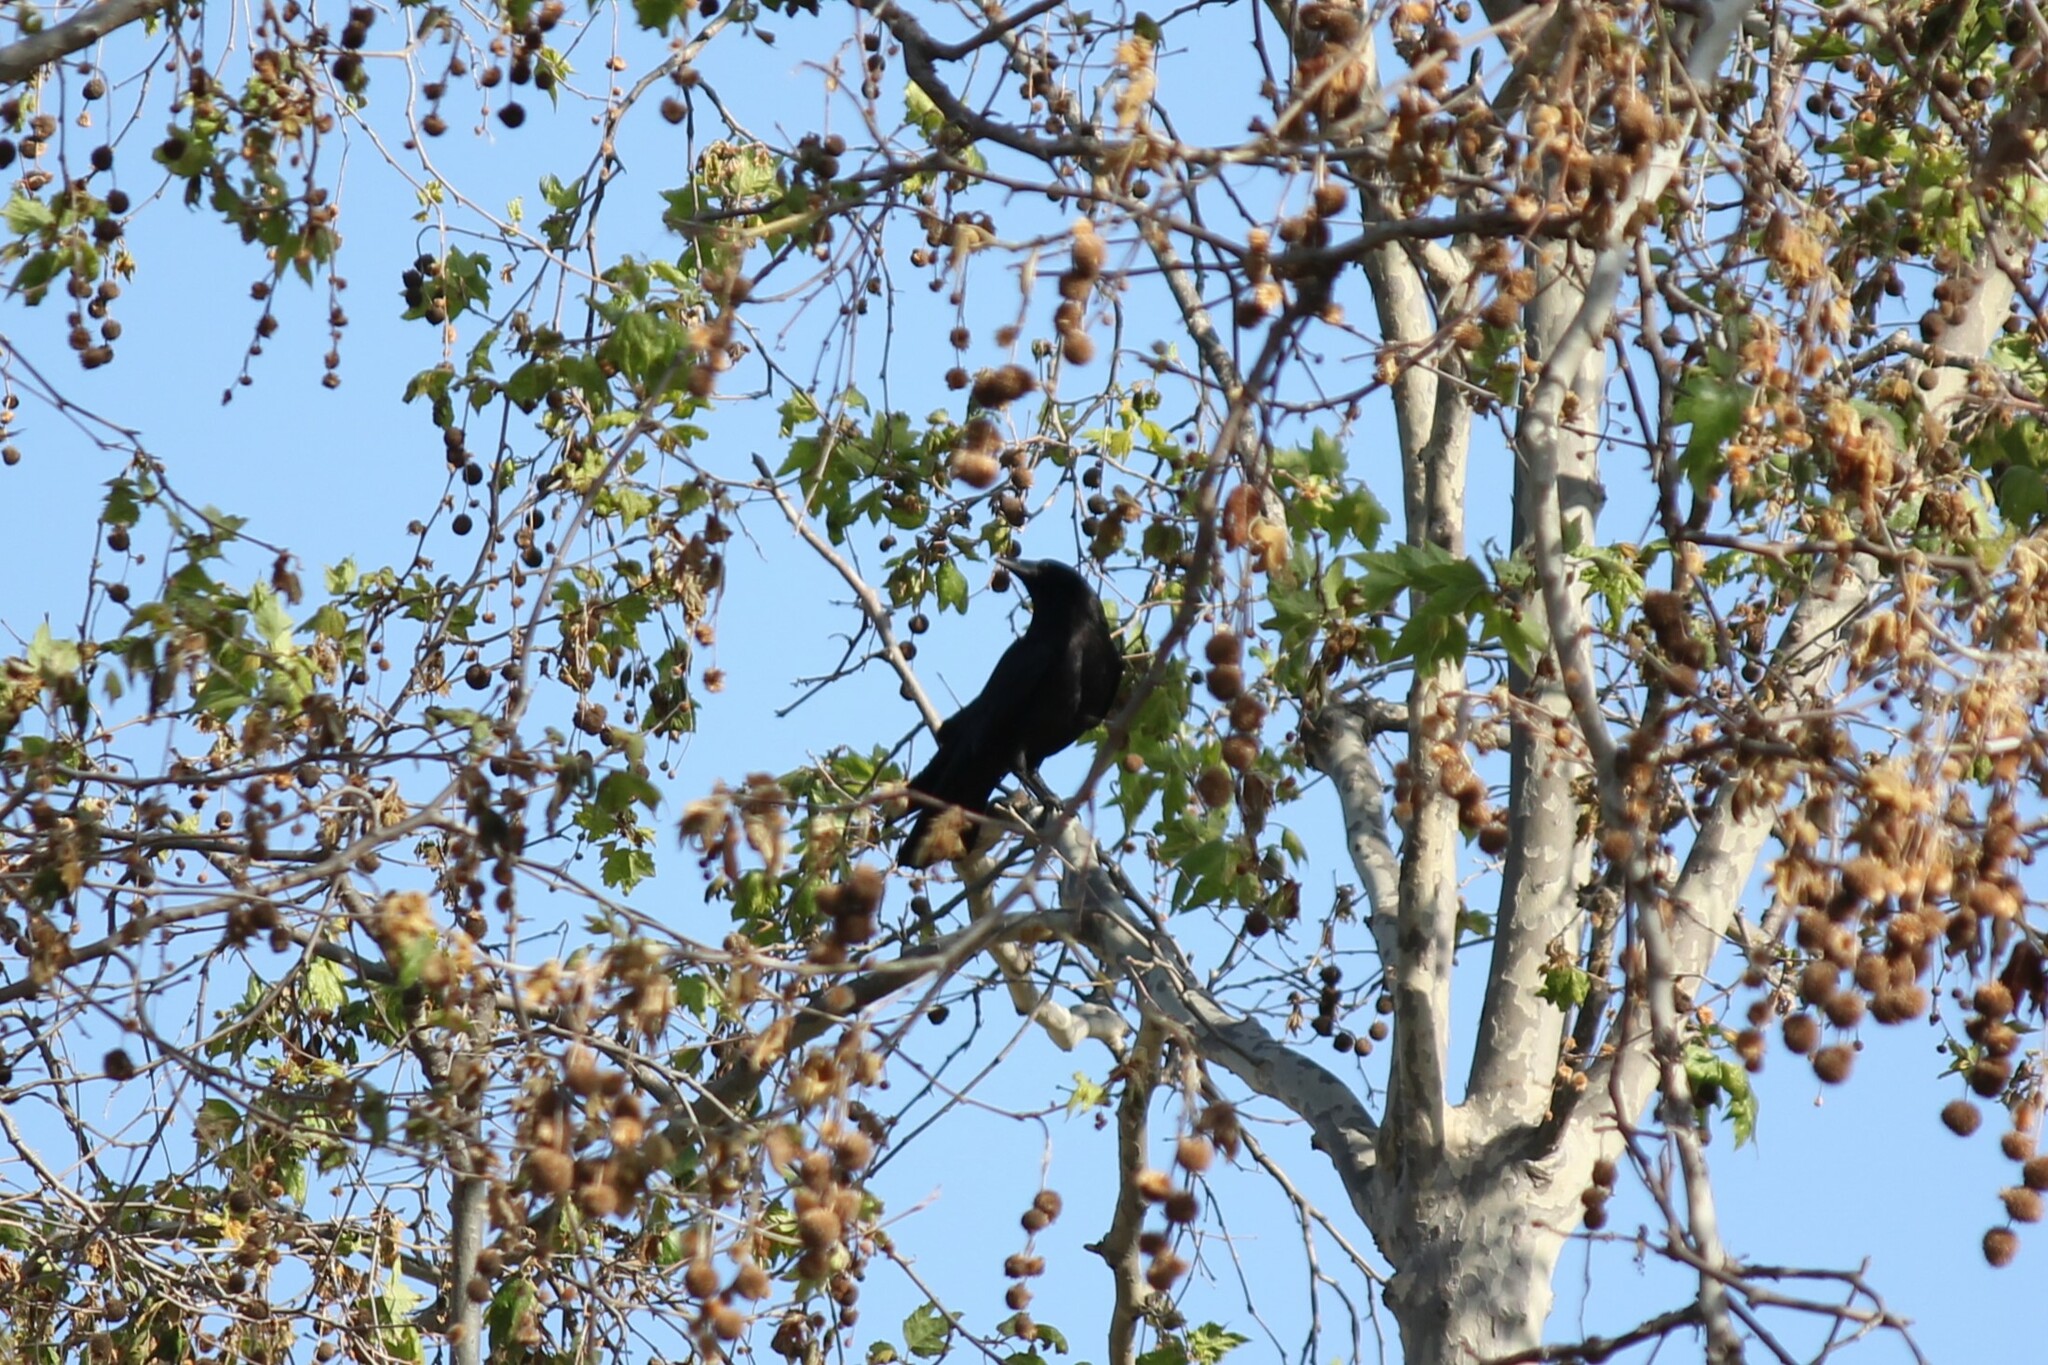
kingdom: Animalia
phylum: Chordata
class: Aves
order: Passeriformes
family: Corvidae
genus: Corvus
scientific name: Corvus brachyrhynchos
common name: American crow
